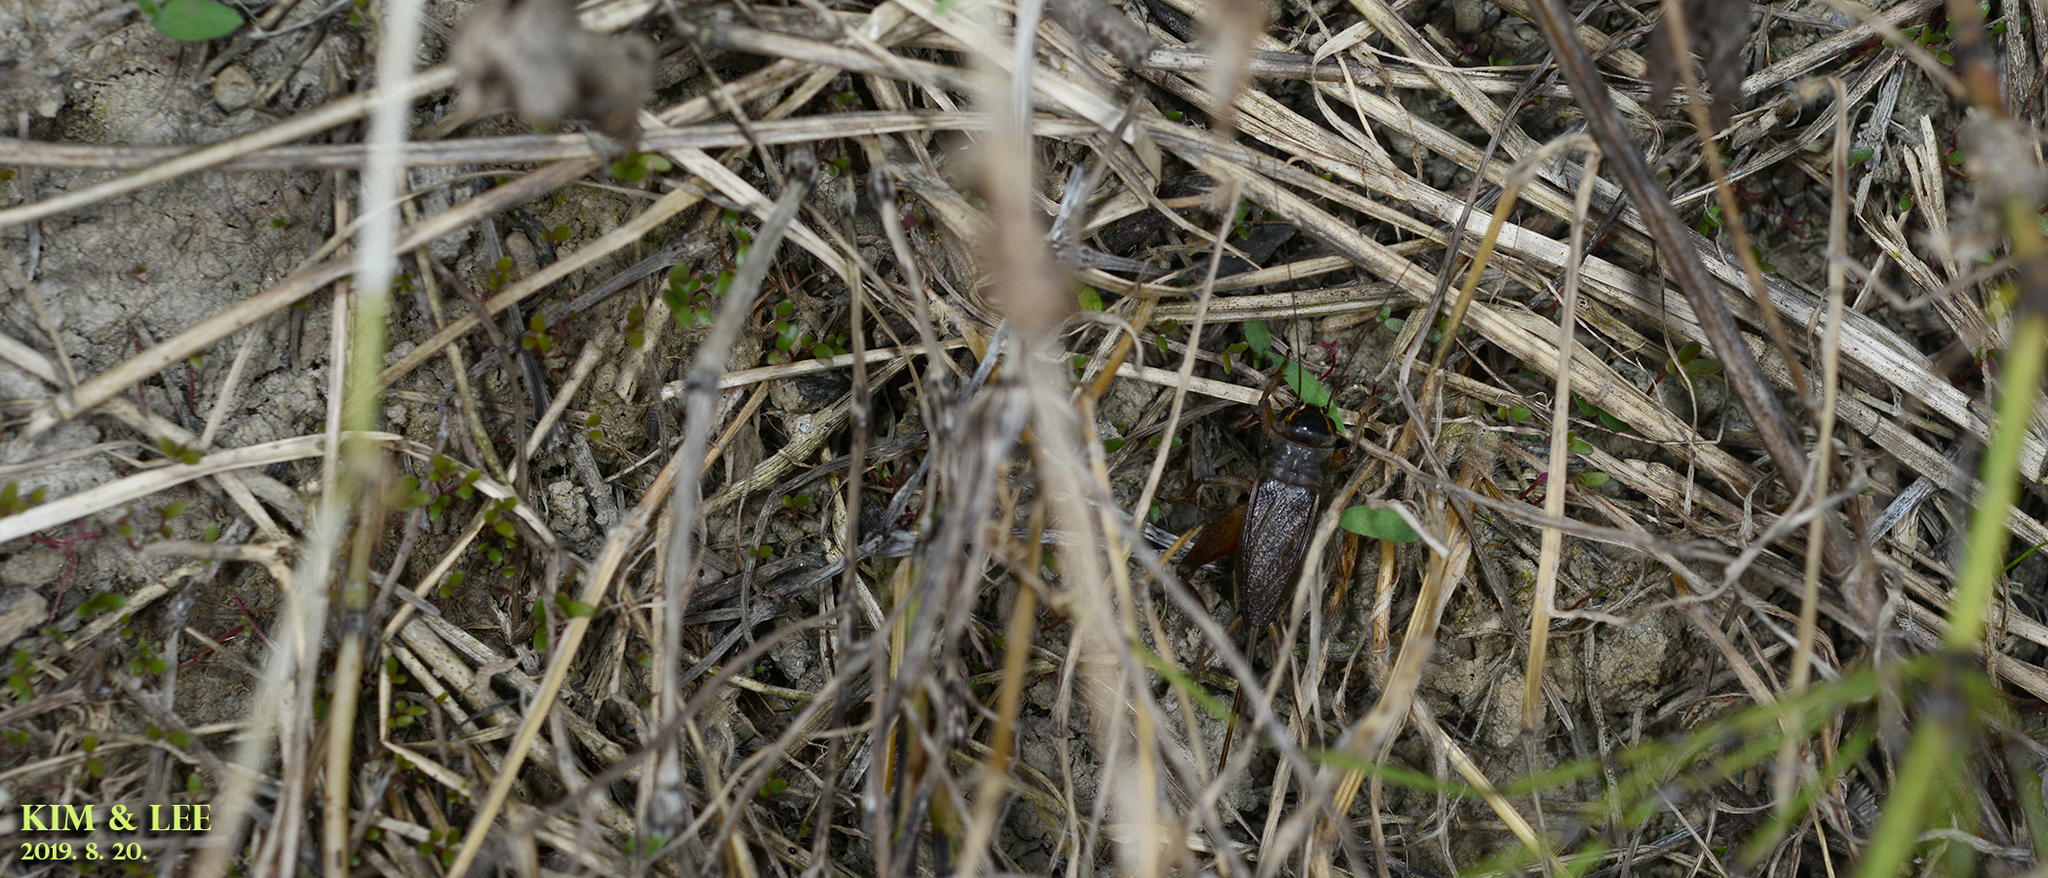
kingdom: Animalia
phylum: Arthropoda
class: Insecta
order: Orthoptera
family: Gryllidae
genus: Teleogryllus
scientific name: Teleogryllus emma
